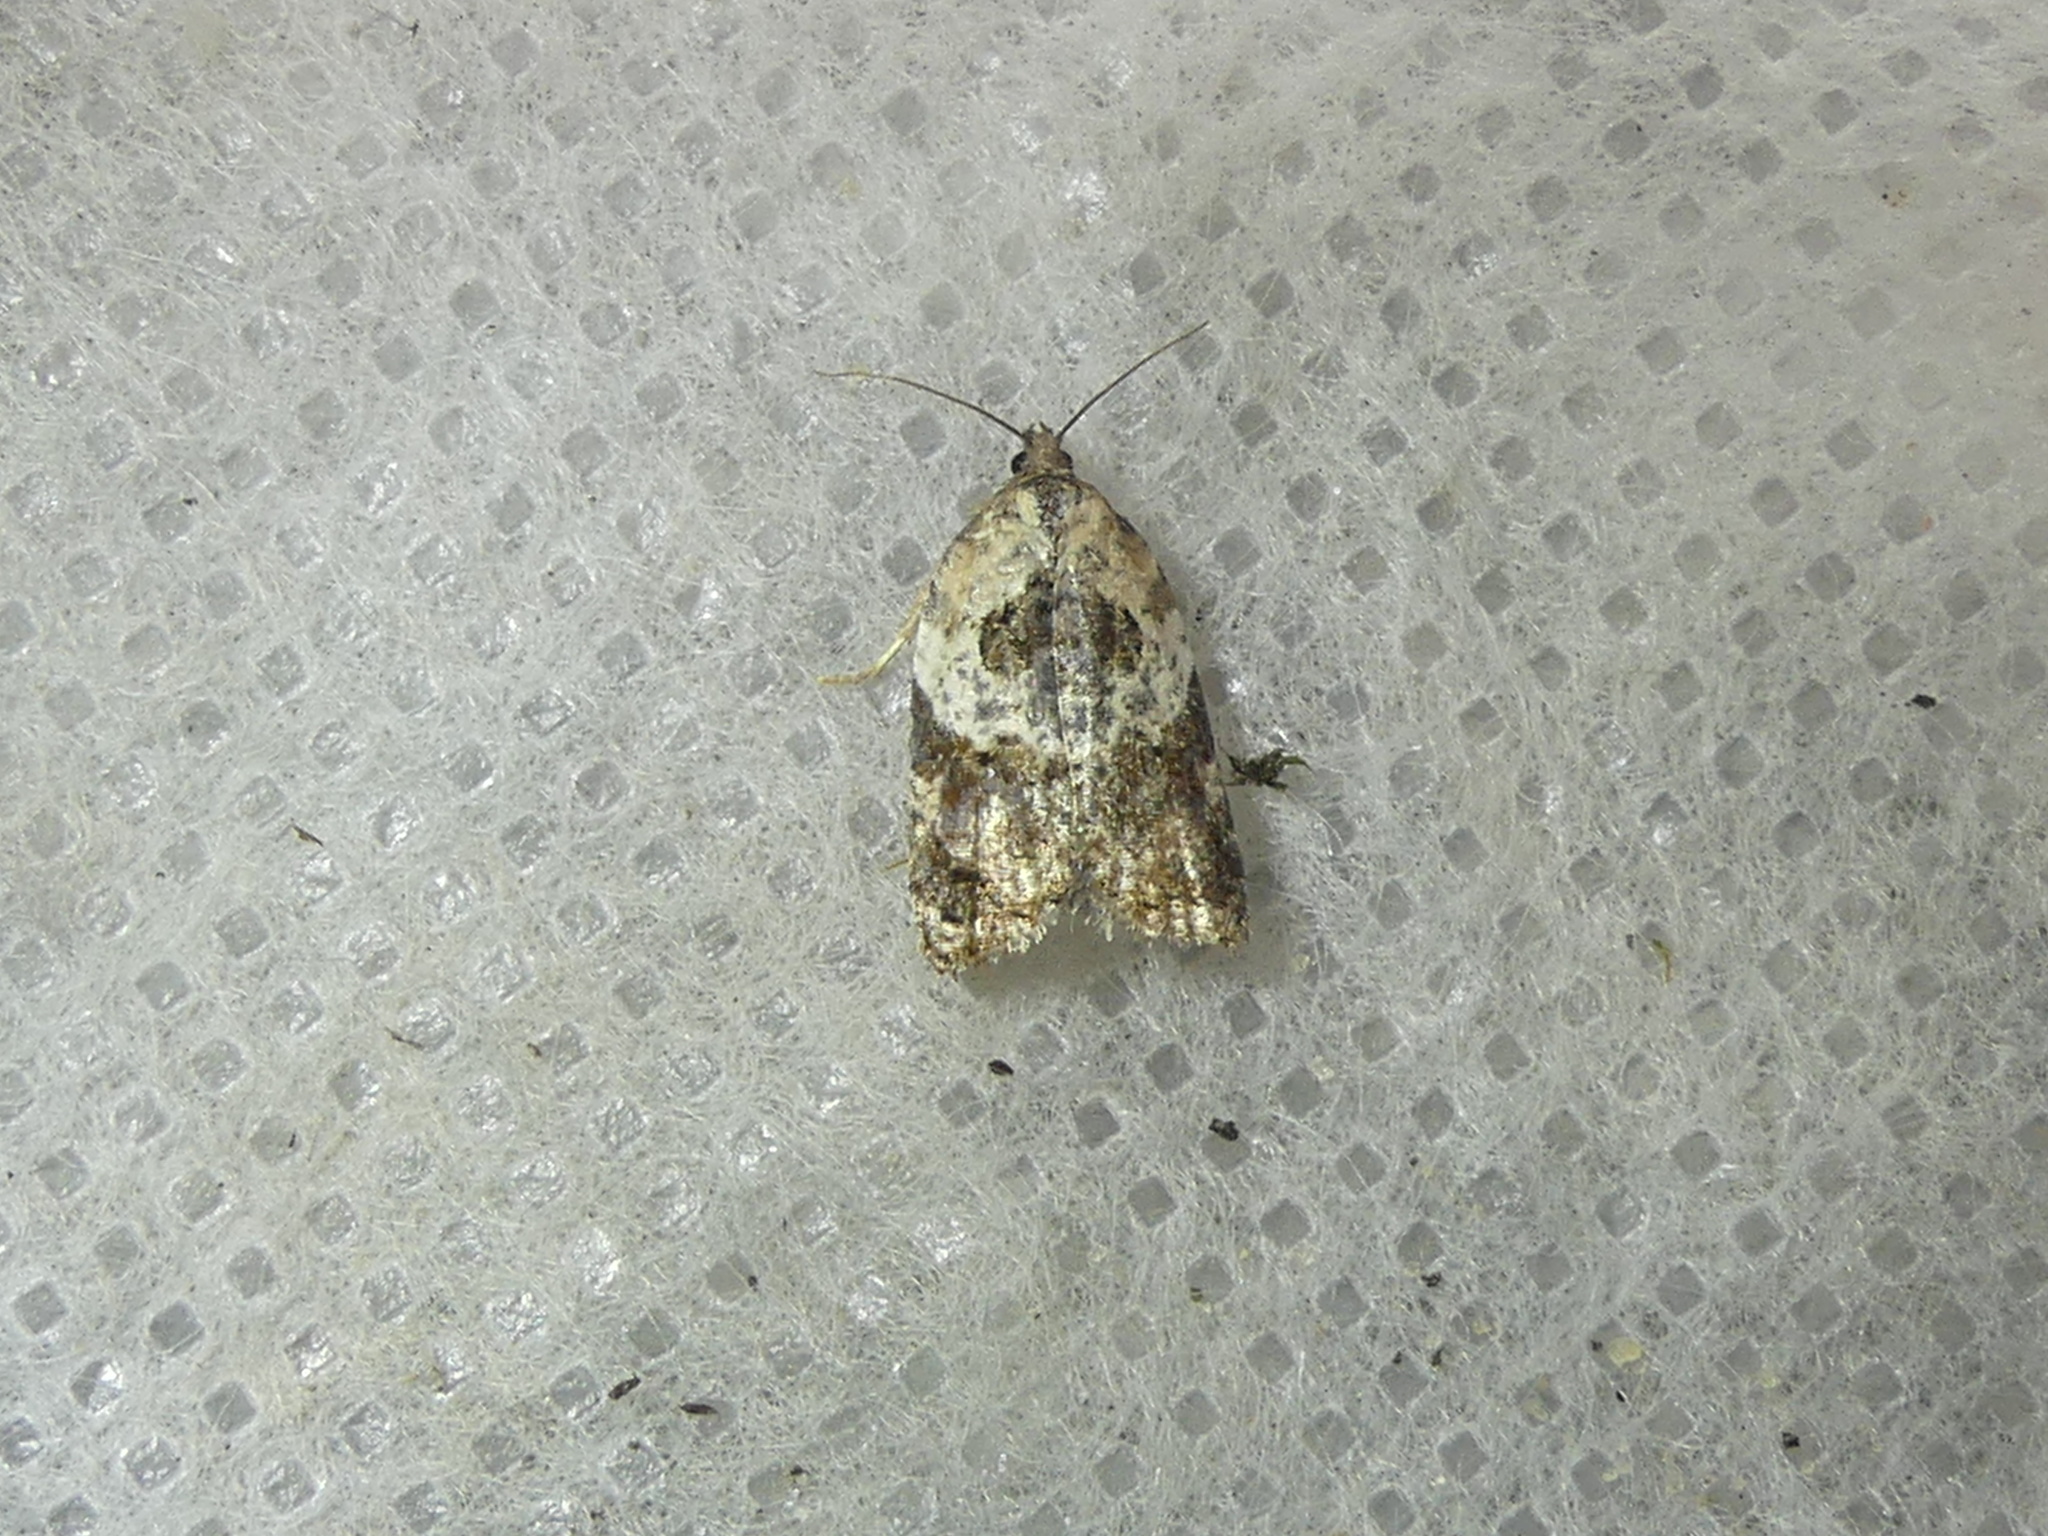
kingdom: Animalia
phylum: Arthropoda
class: Insecta
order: Lepidoptera
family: Tortricidae
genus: Acleris
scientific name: Acleris variegana
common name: Garden rose tortrix
